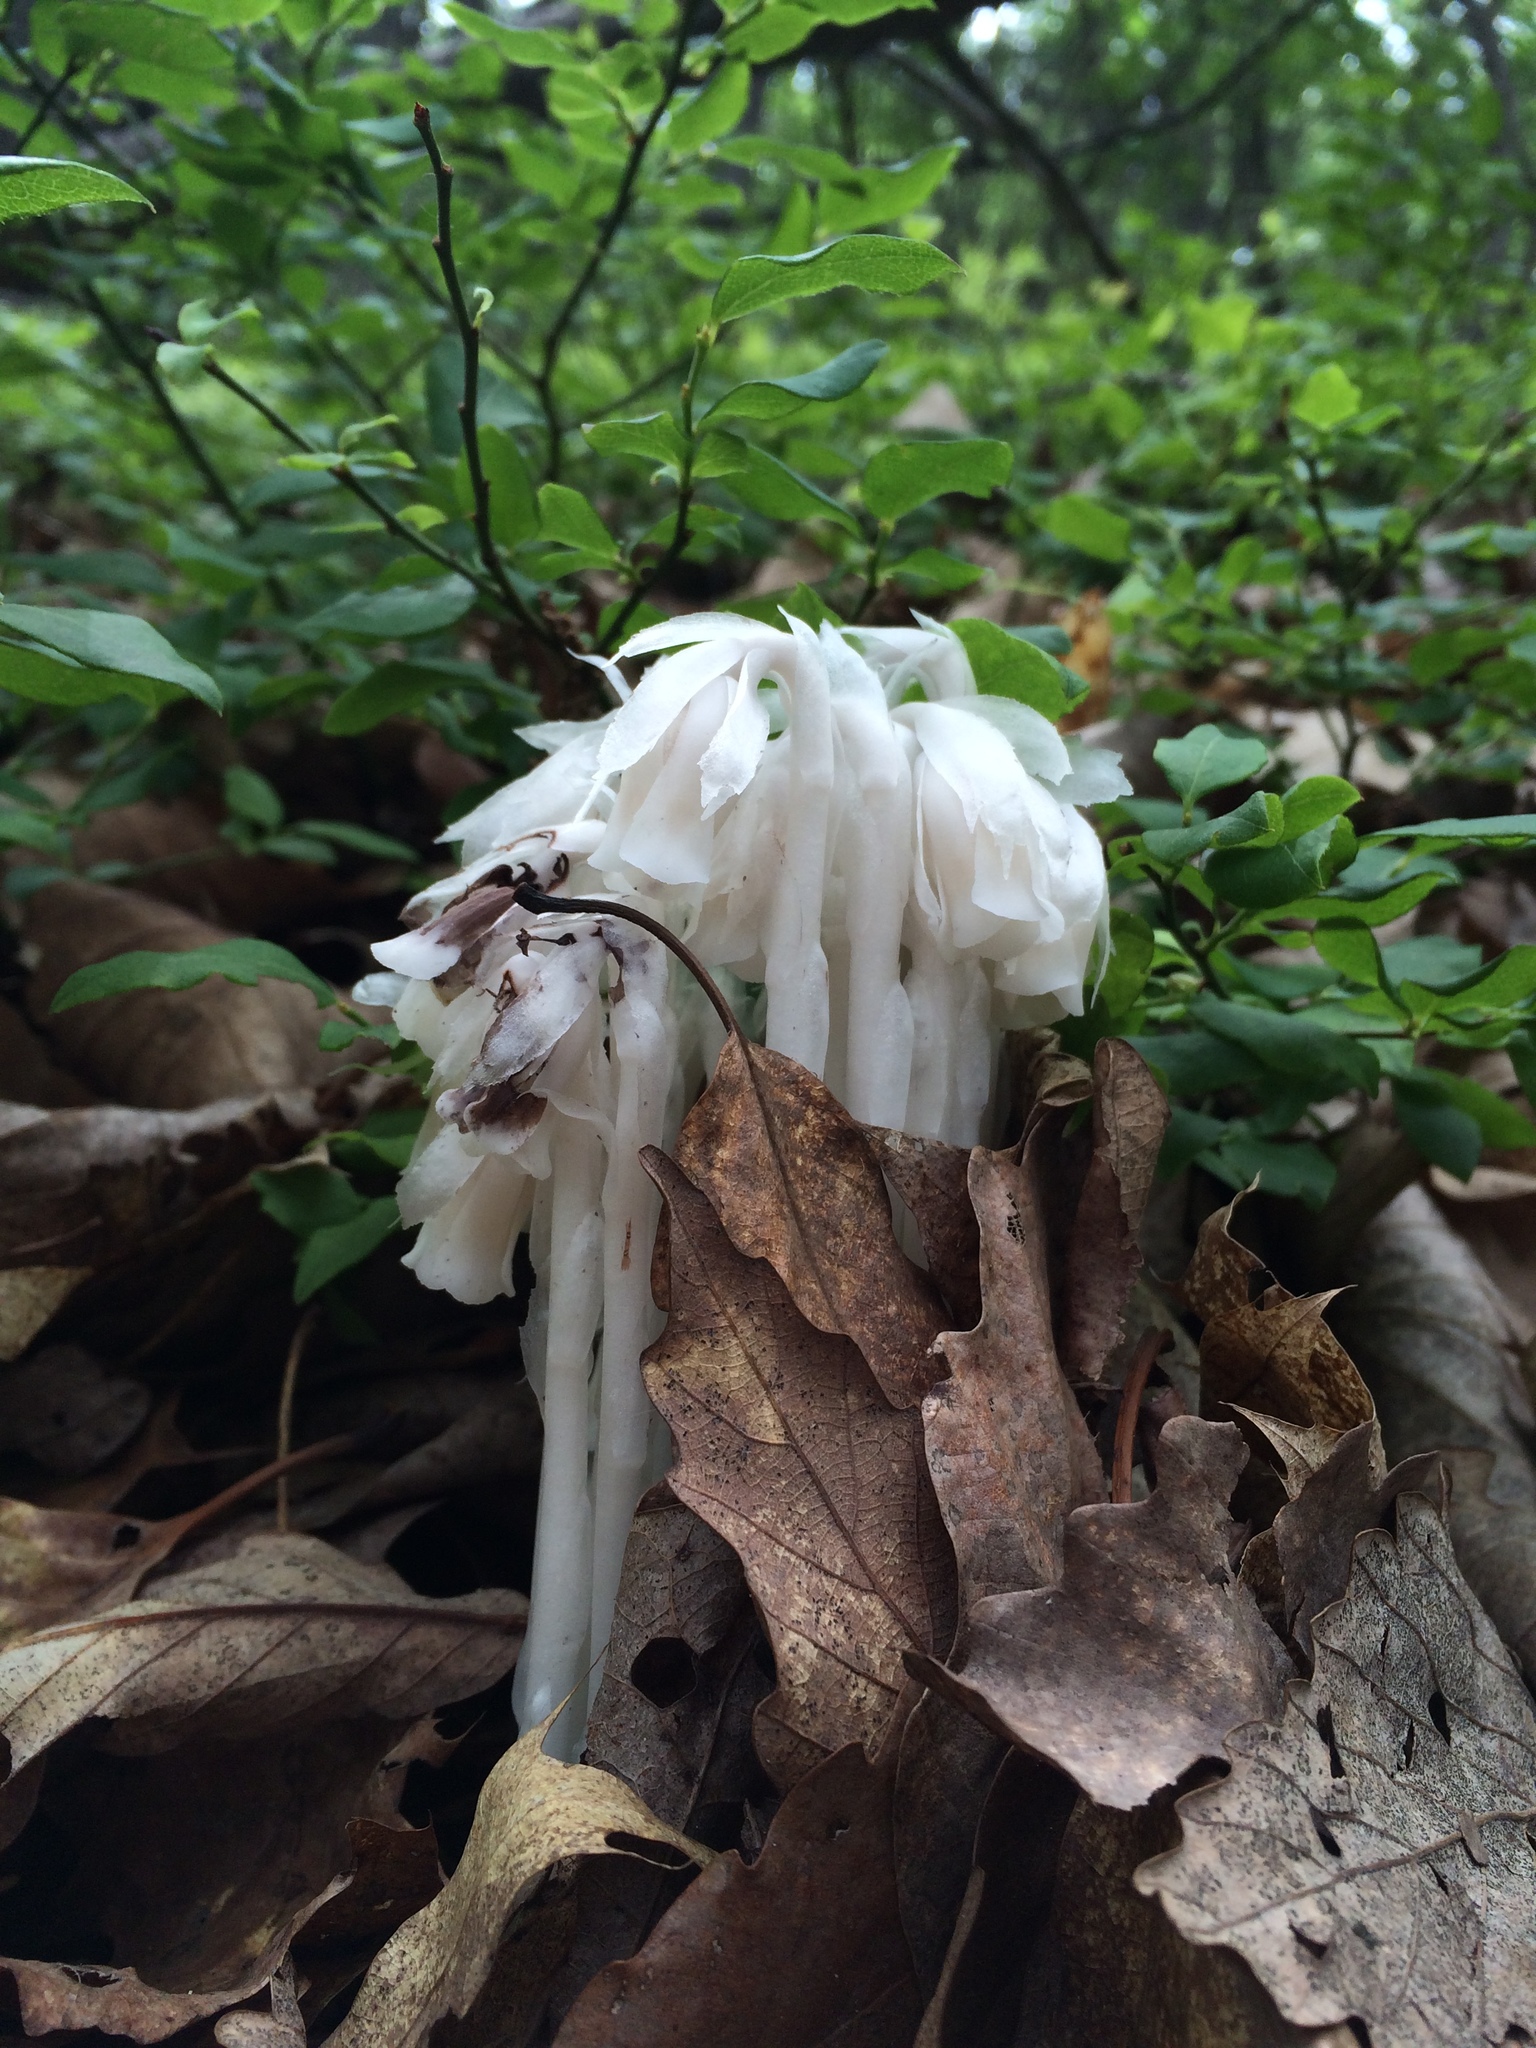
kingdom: Plantae
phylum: Tracheophyta
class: Magnoliopsida
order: Ericales
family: Ericaceae
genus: Monotropa
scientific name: Monotropa uniflora
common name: Convulsion root
